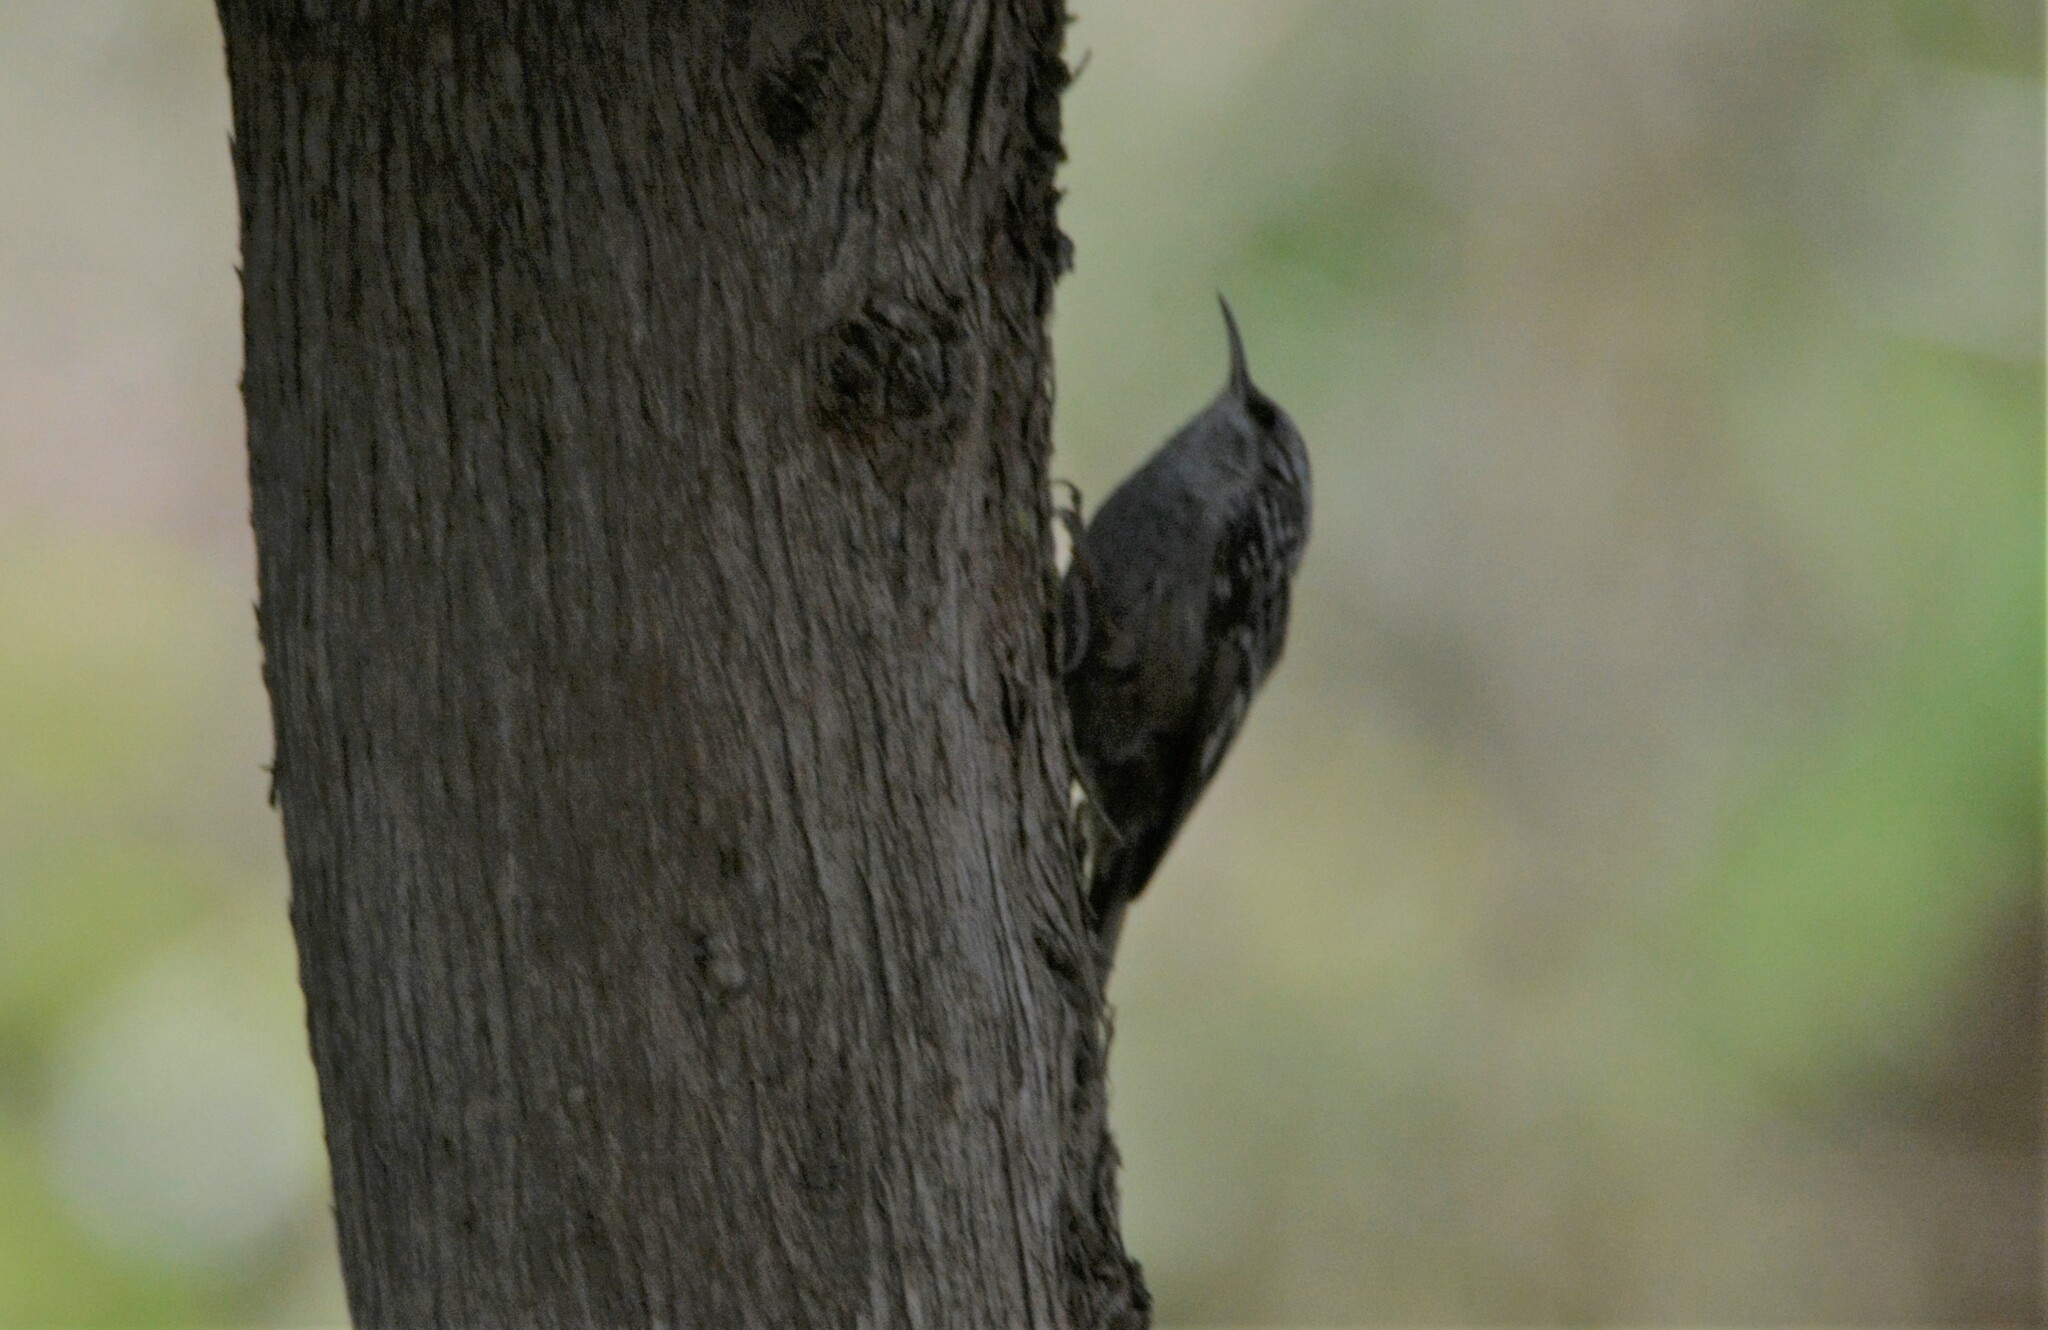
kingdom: Animalia
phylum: Chordata
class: Aves
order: Passeriformes
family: Certhiidae
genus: Certhia
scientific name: Certhia brachydactyla
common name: Short-toed treecreeper
